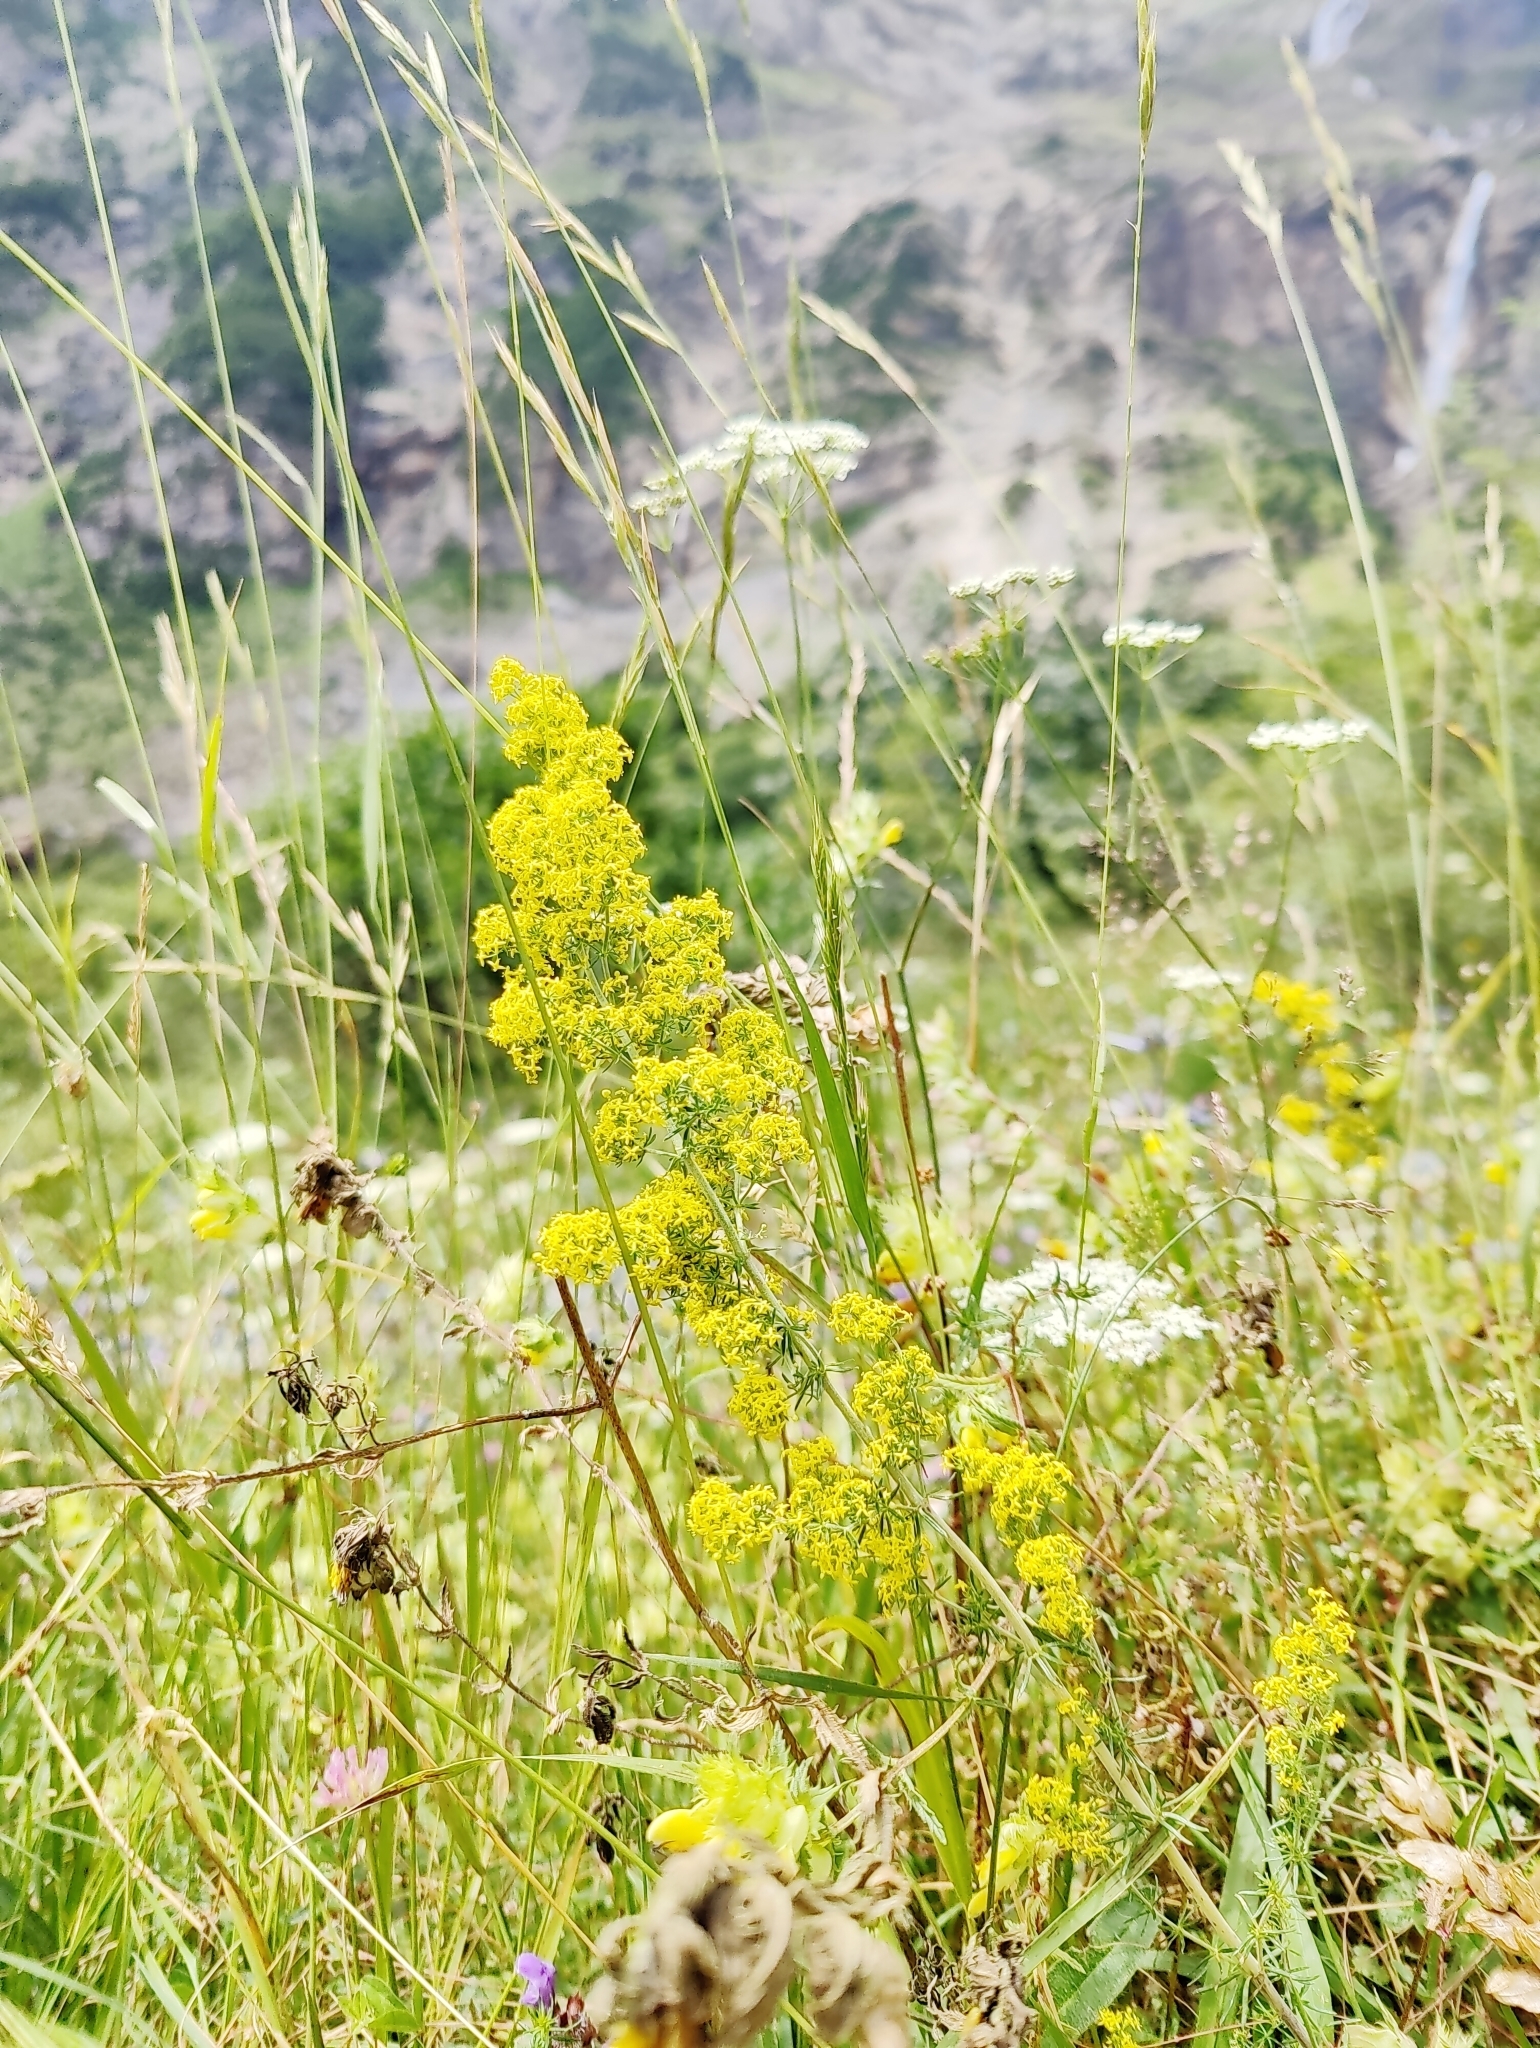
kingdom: Plantae
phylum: Tracheophyta
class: Magnoliopsida
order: Gentianales
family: Rubiaceae
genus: Galium
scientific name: Galium verum
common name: Lady's bedstraw
